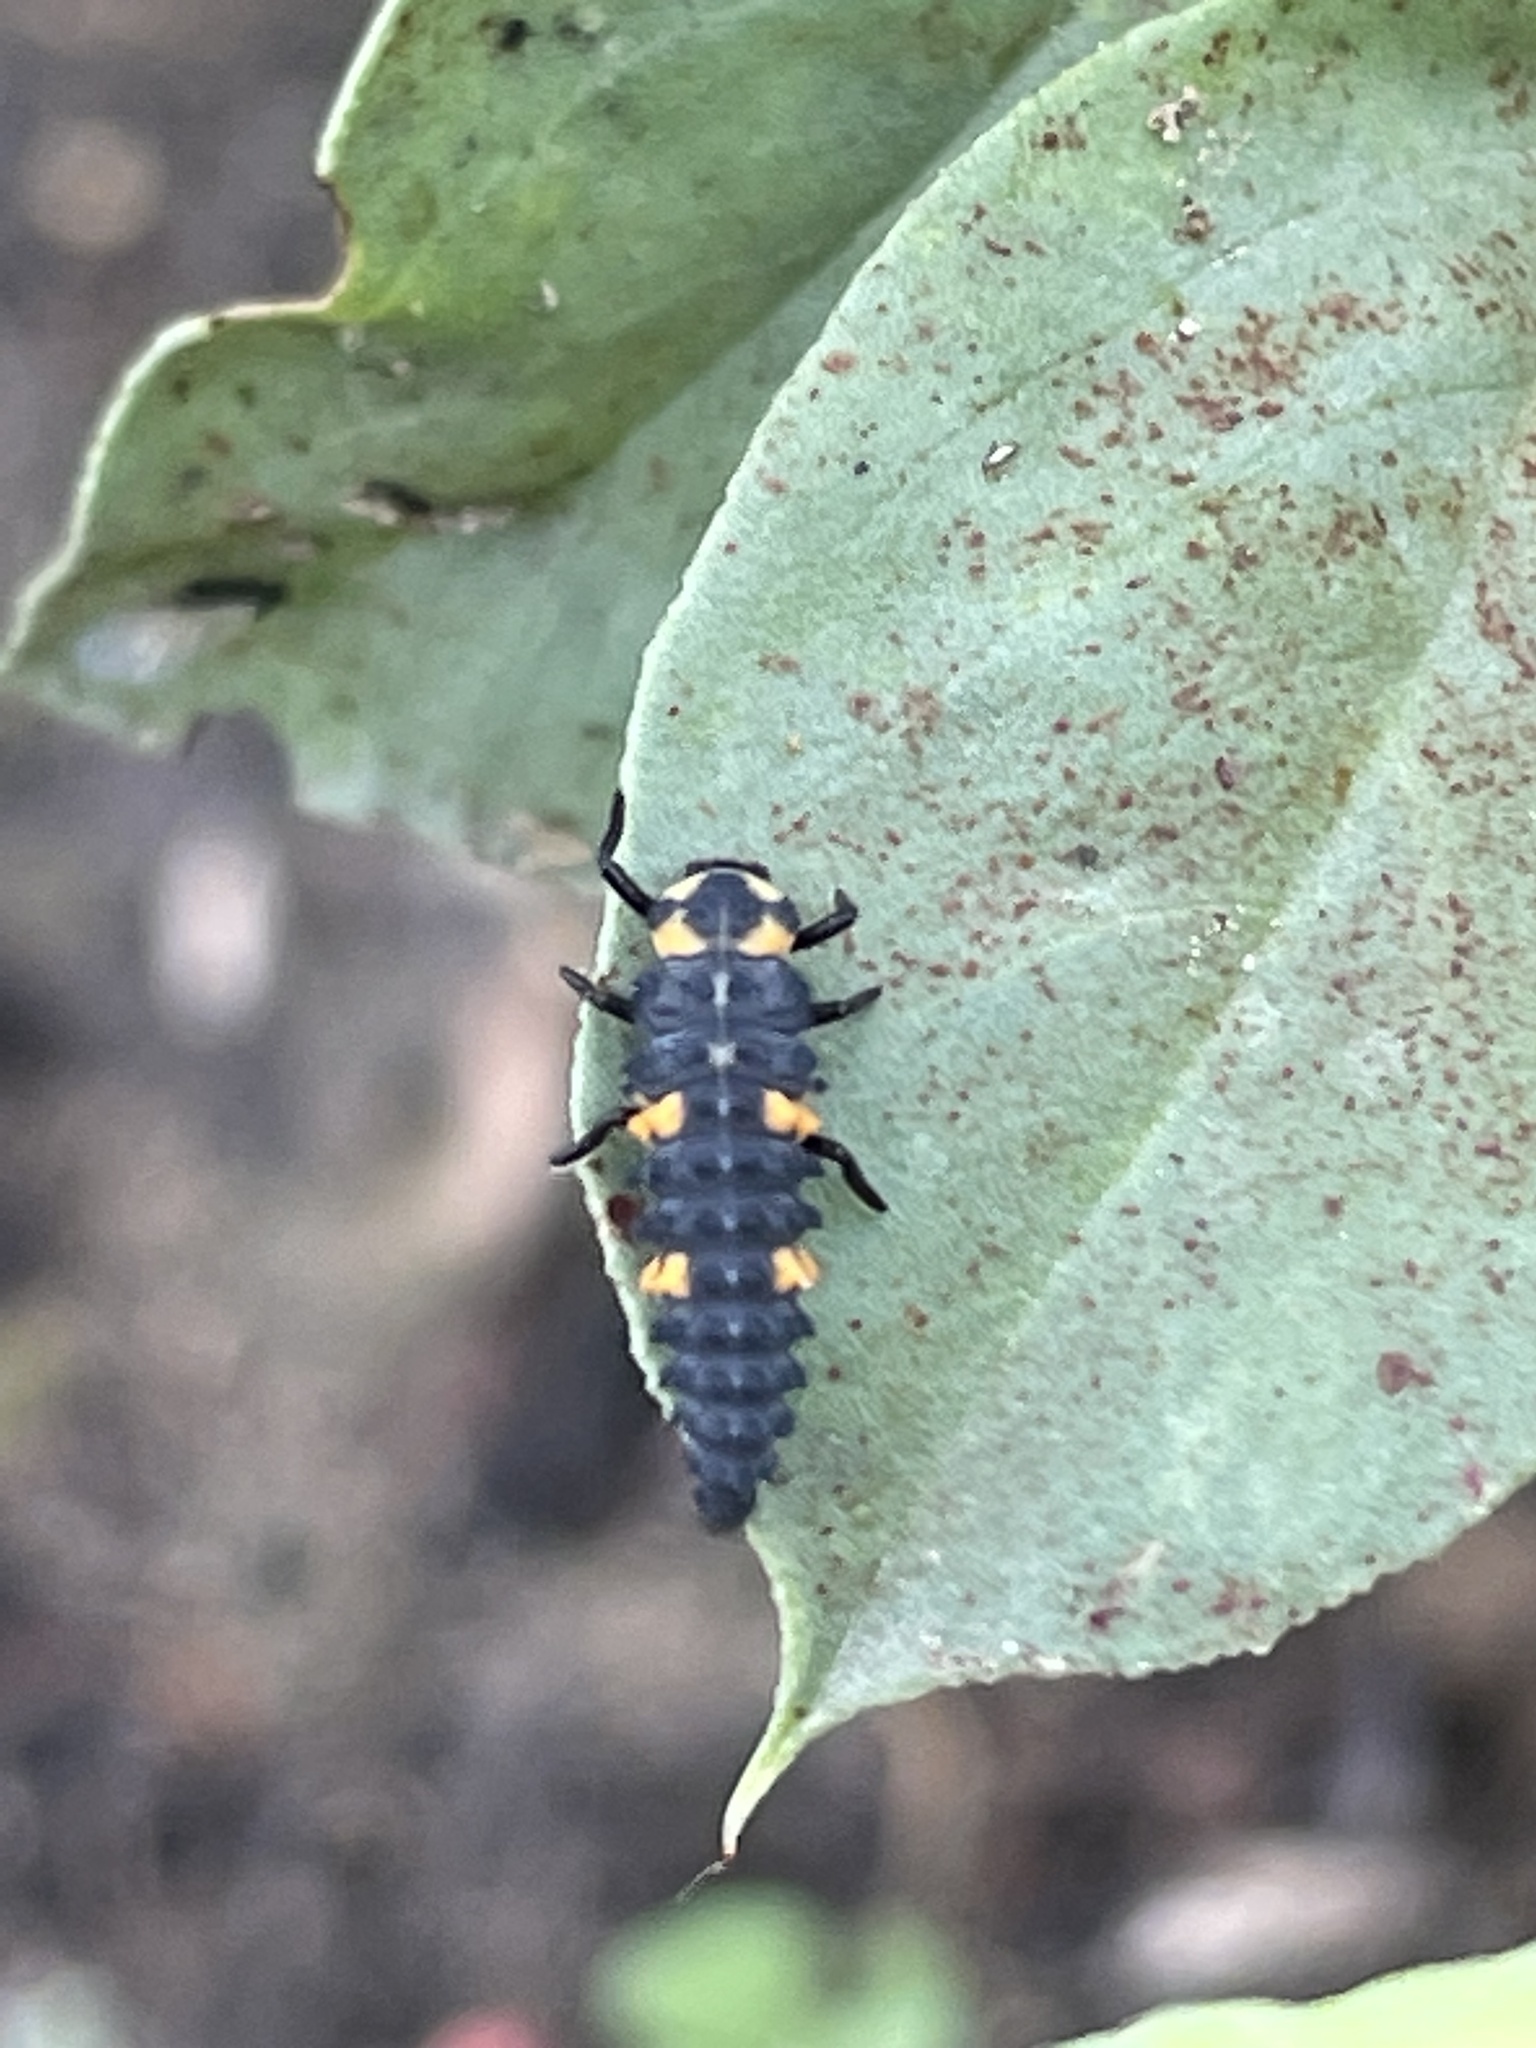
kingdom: Animalia
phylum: Arthropoda
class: Insecta
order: Coleoptera
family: Coccinellidae
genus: Coccinella
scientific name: Coccinella septempunctata
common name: Sevenspotted lady beetle
